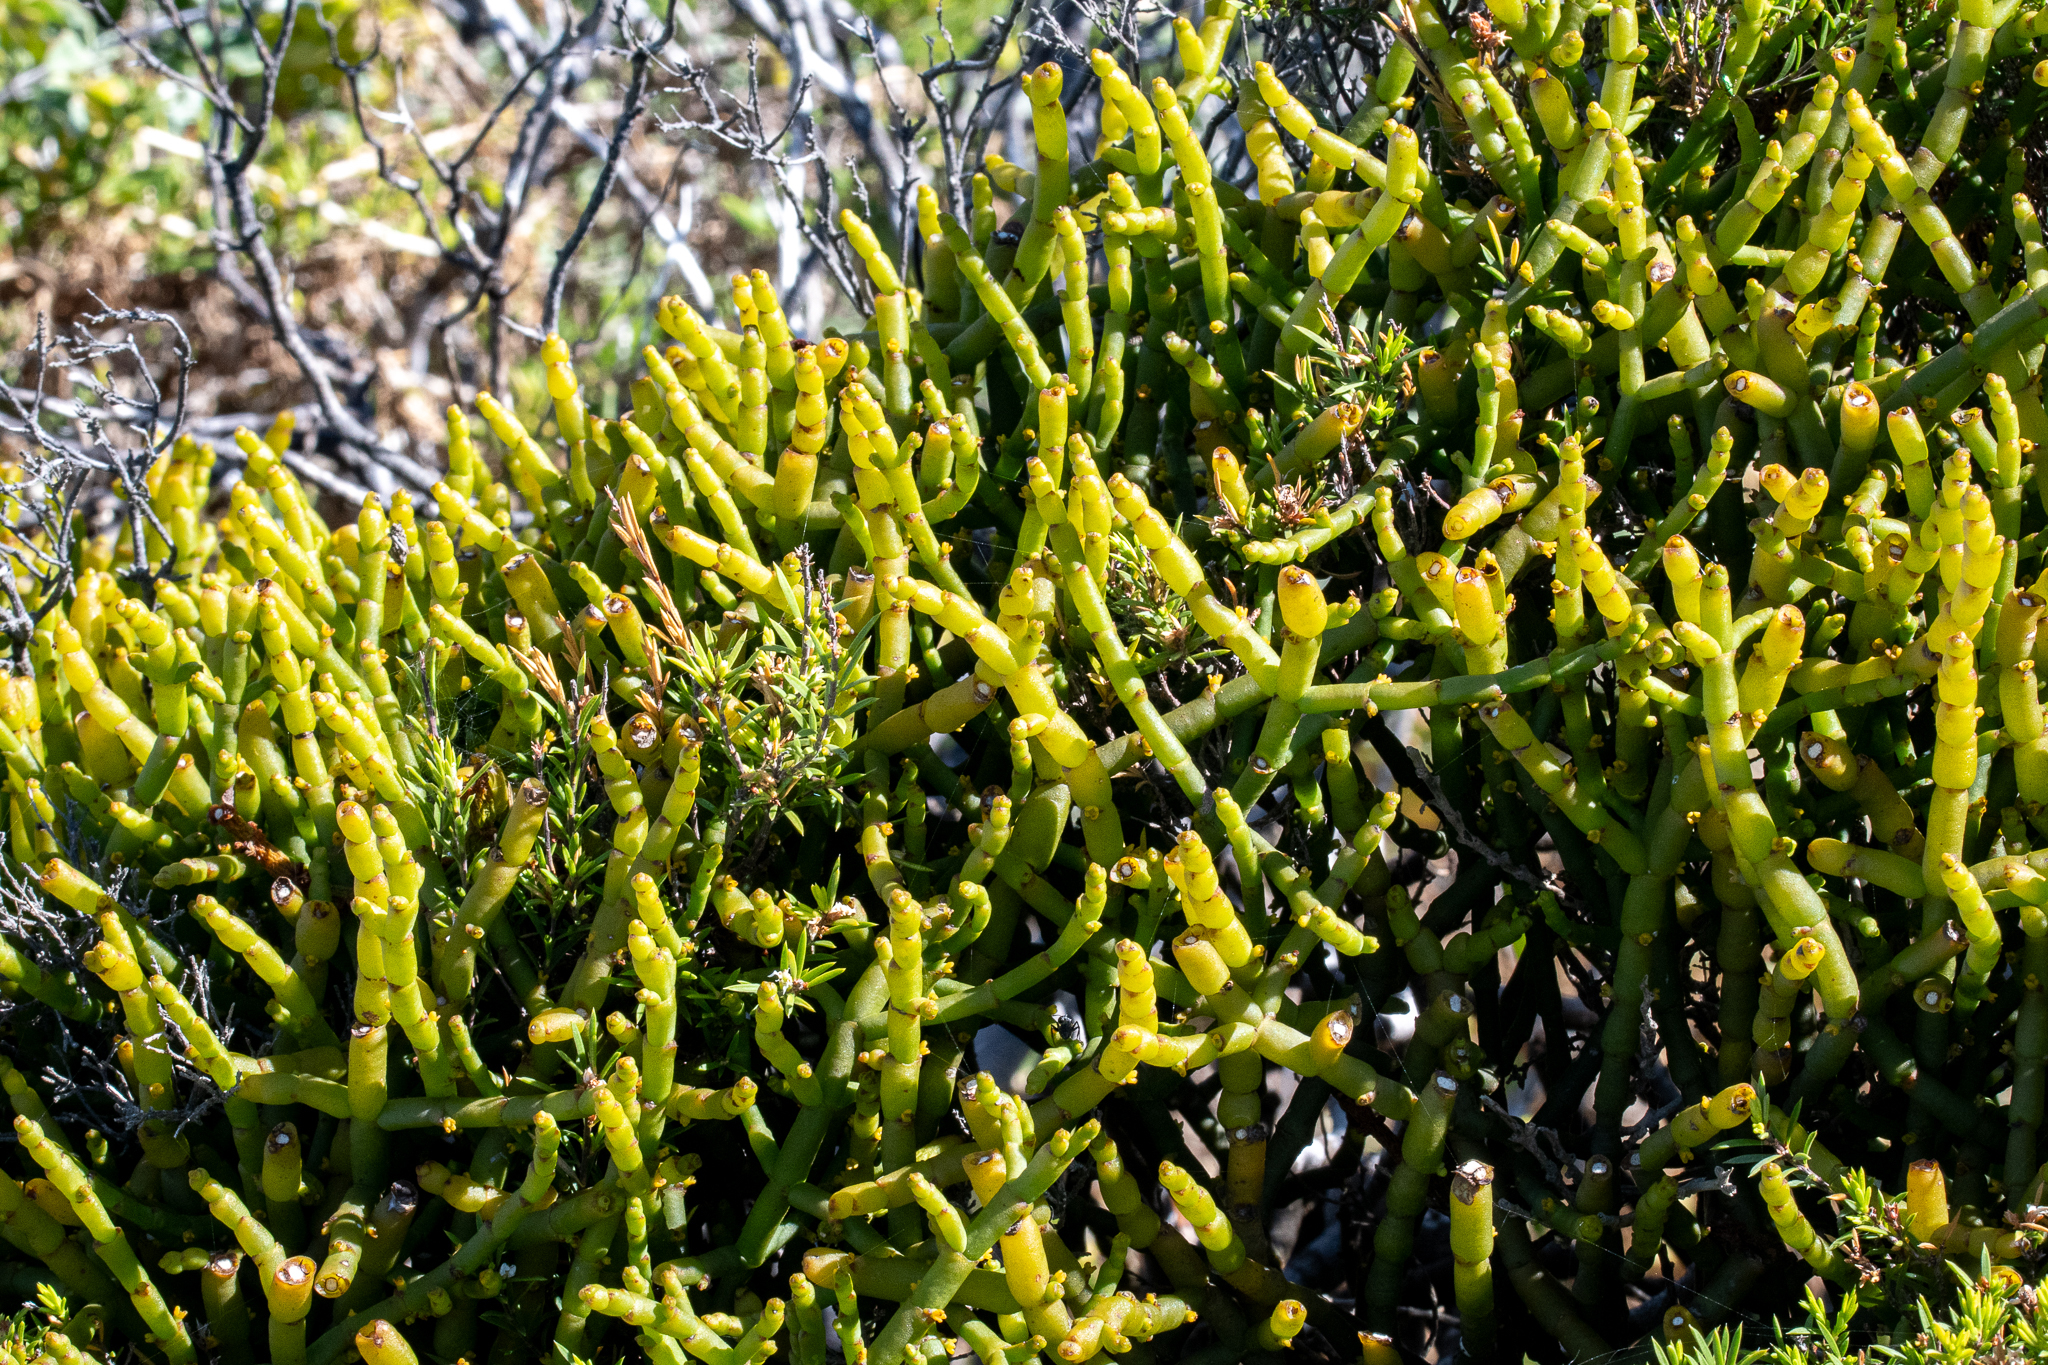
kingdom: Plantae
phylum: Tracheophyta
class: Magnoliopsida
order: Santalales
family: Viscaceae
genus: Viscum
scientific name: Viscum capense
